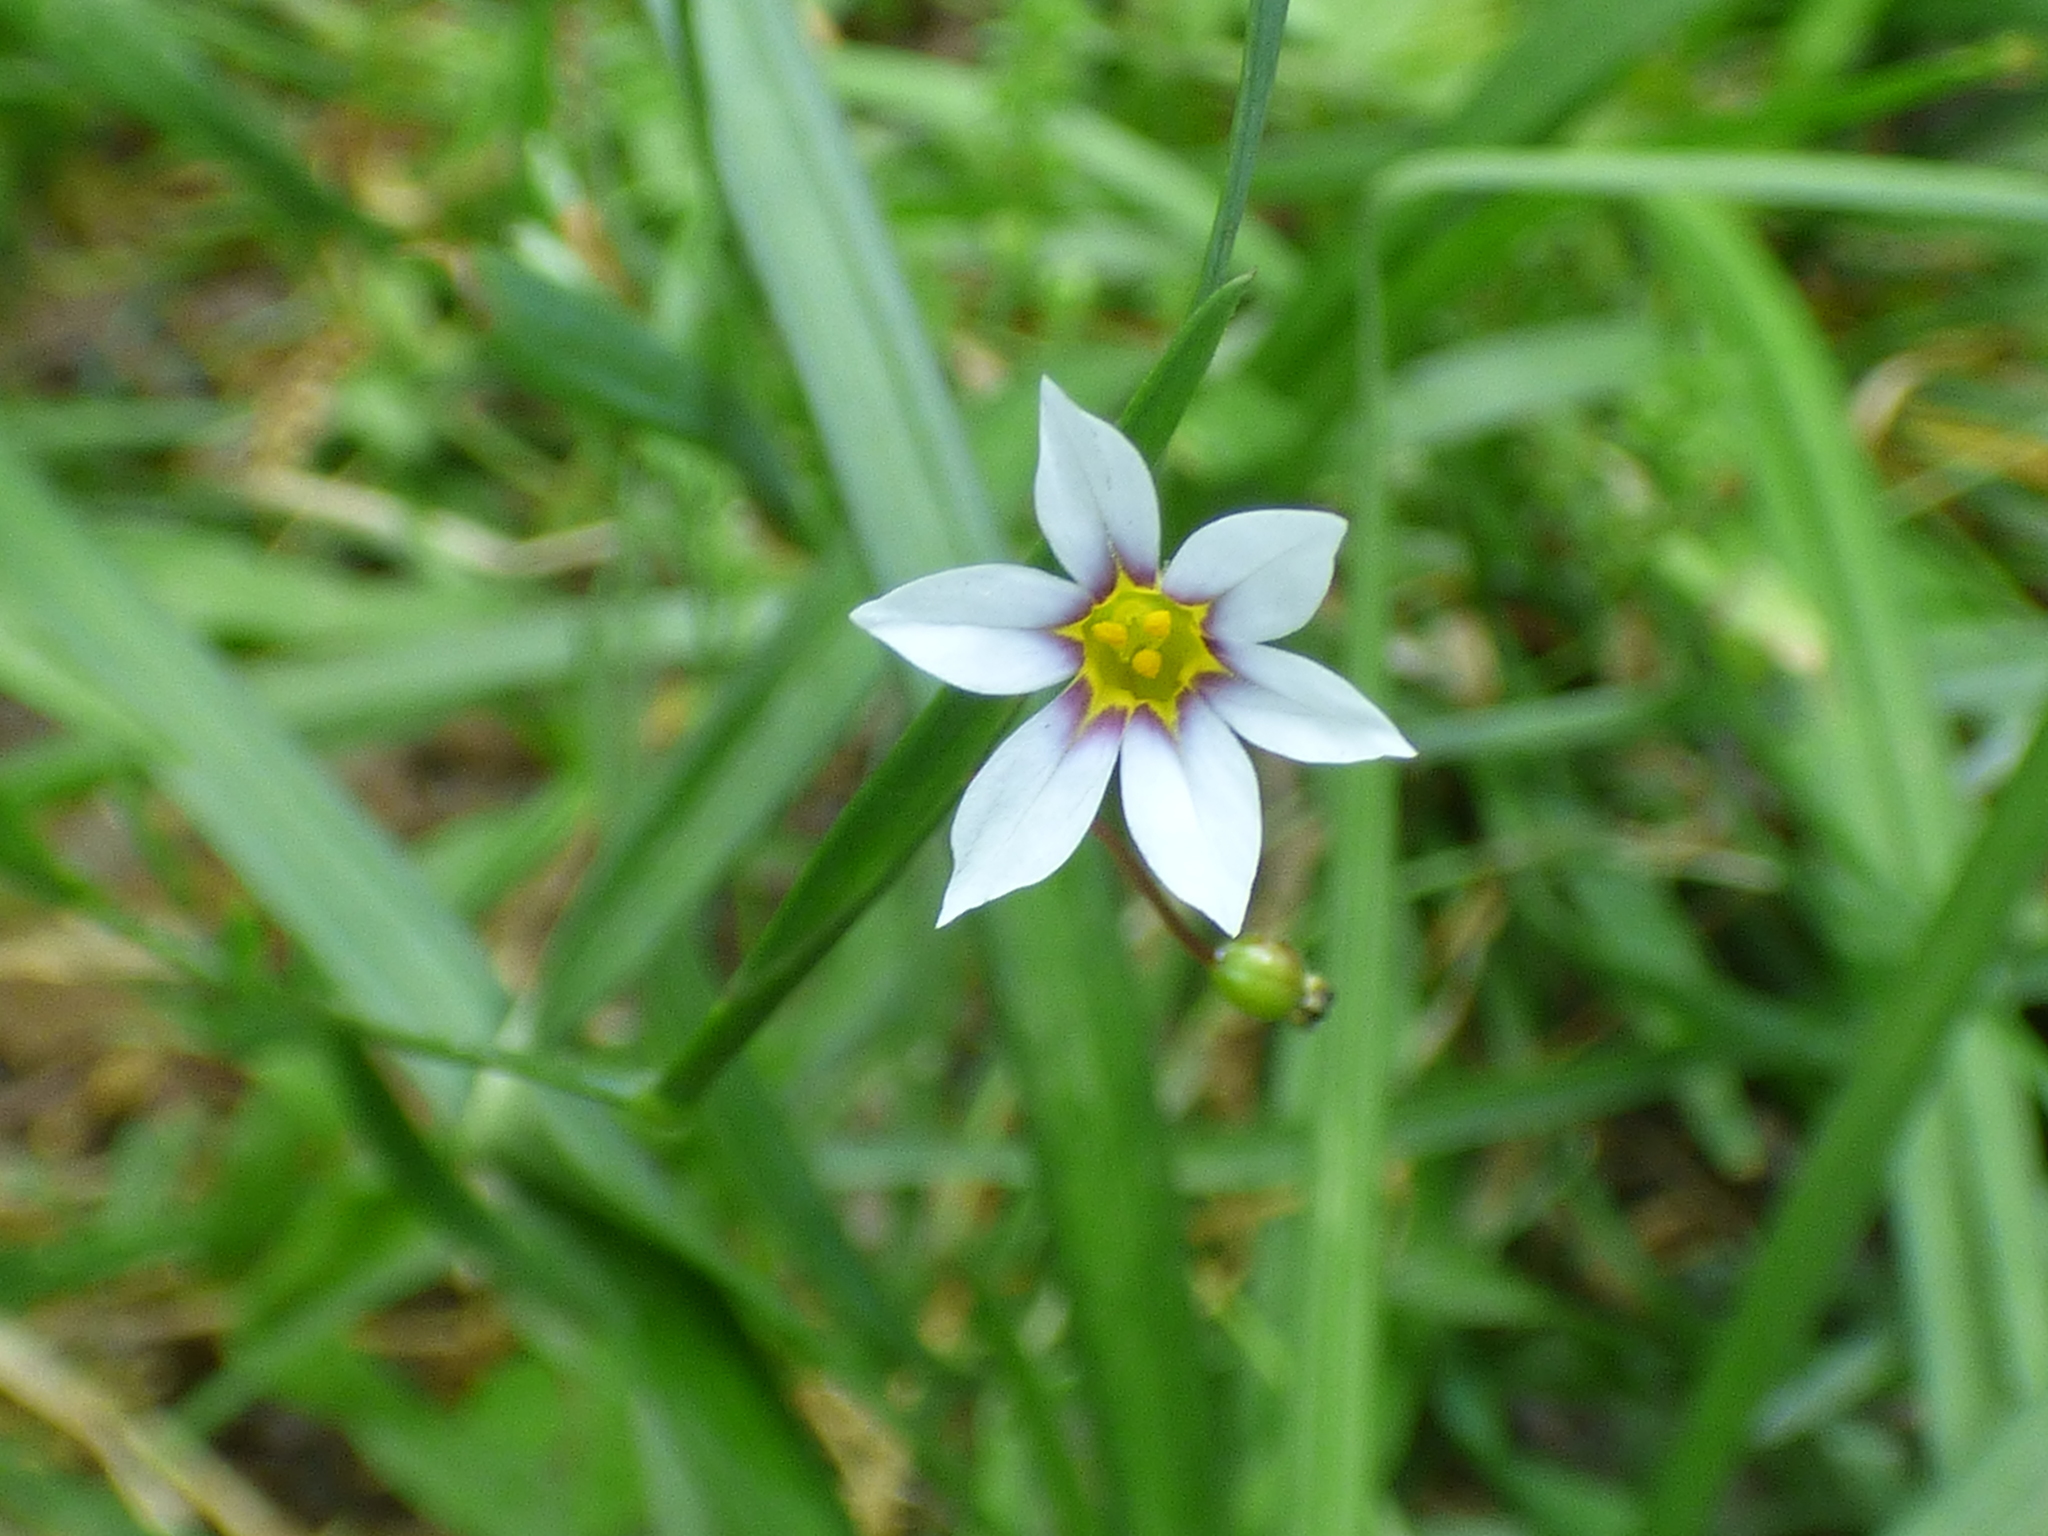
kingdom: Plantae
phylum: Tracheophyta
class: Liliopsida
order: Asparagales
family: Iridaceae
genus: Sisyrinchium
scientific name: Sisyrinchium micranthum
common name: Bermuda pigroot
